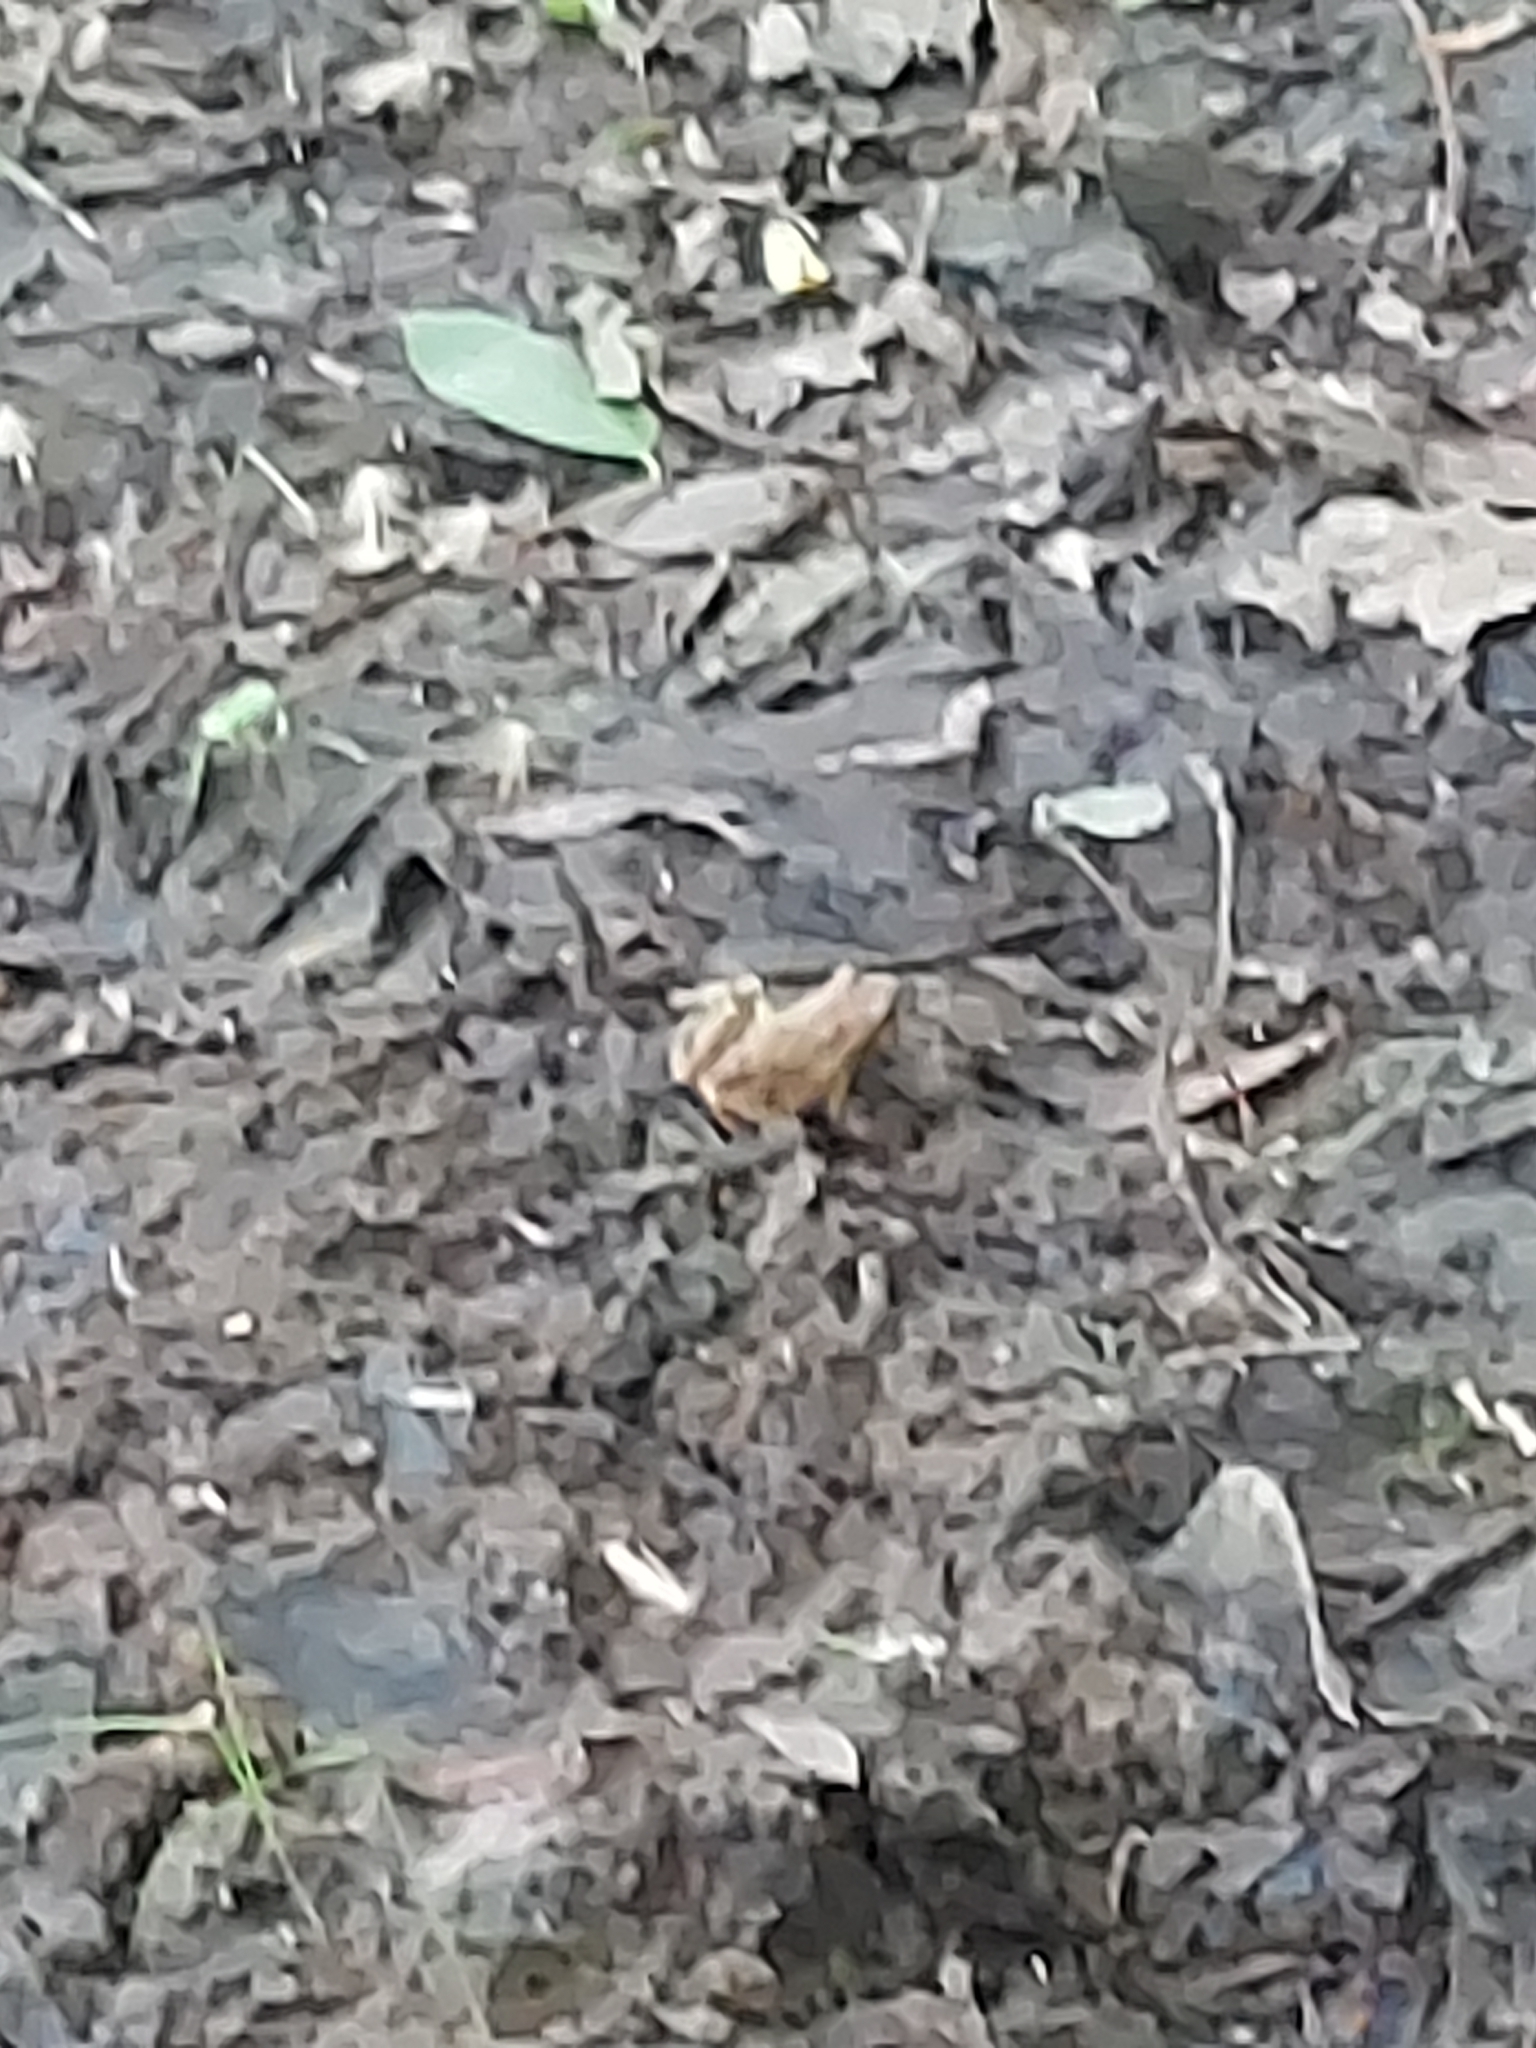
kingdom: Animalia
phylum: Chordata
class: Amphibia
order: Anura
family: Hylidae
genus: Pseudacris
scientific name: Pseudacris crucifer
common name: Spring peeper
